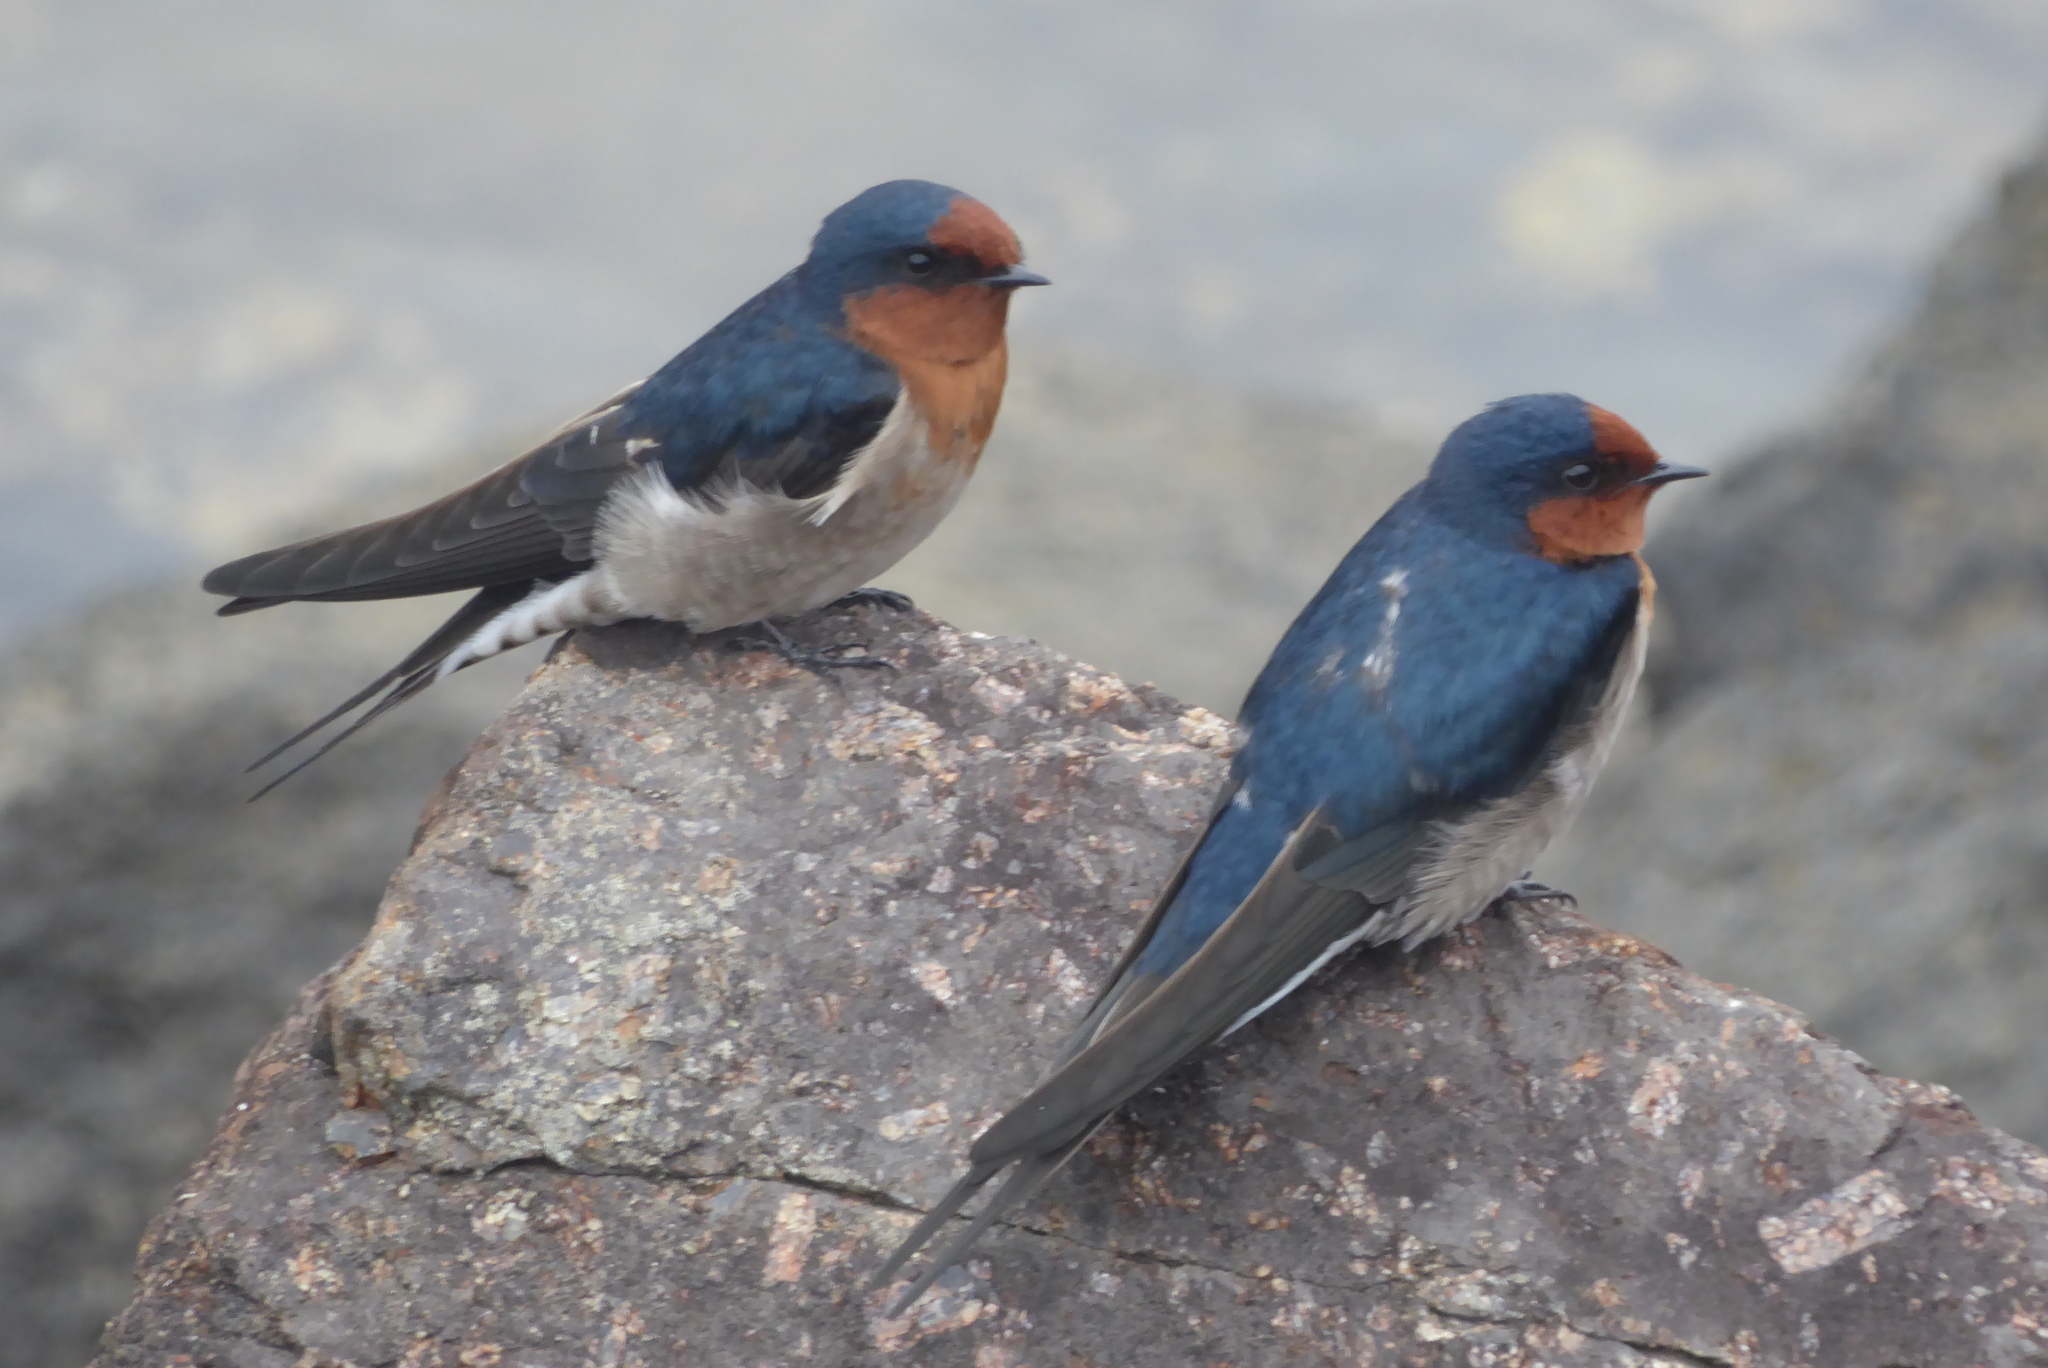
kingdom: Animalia
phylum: Chordata
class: Aves
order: Passeriformes
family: Hirundinidae
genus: Hirundo
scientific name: Hirundo neoxena
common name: Welcome swallow
